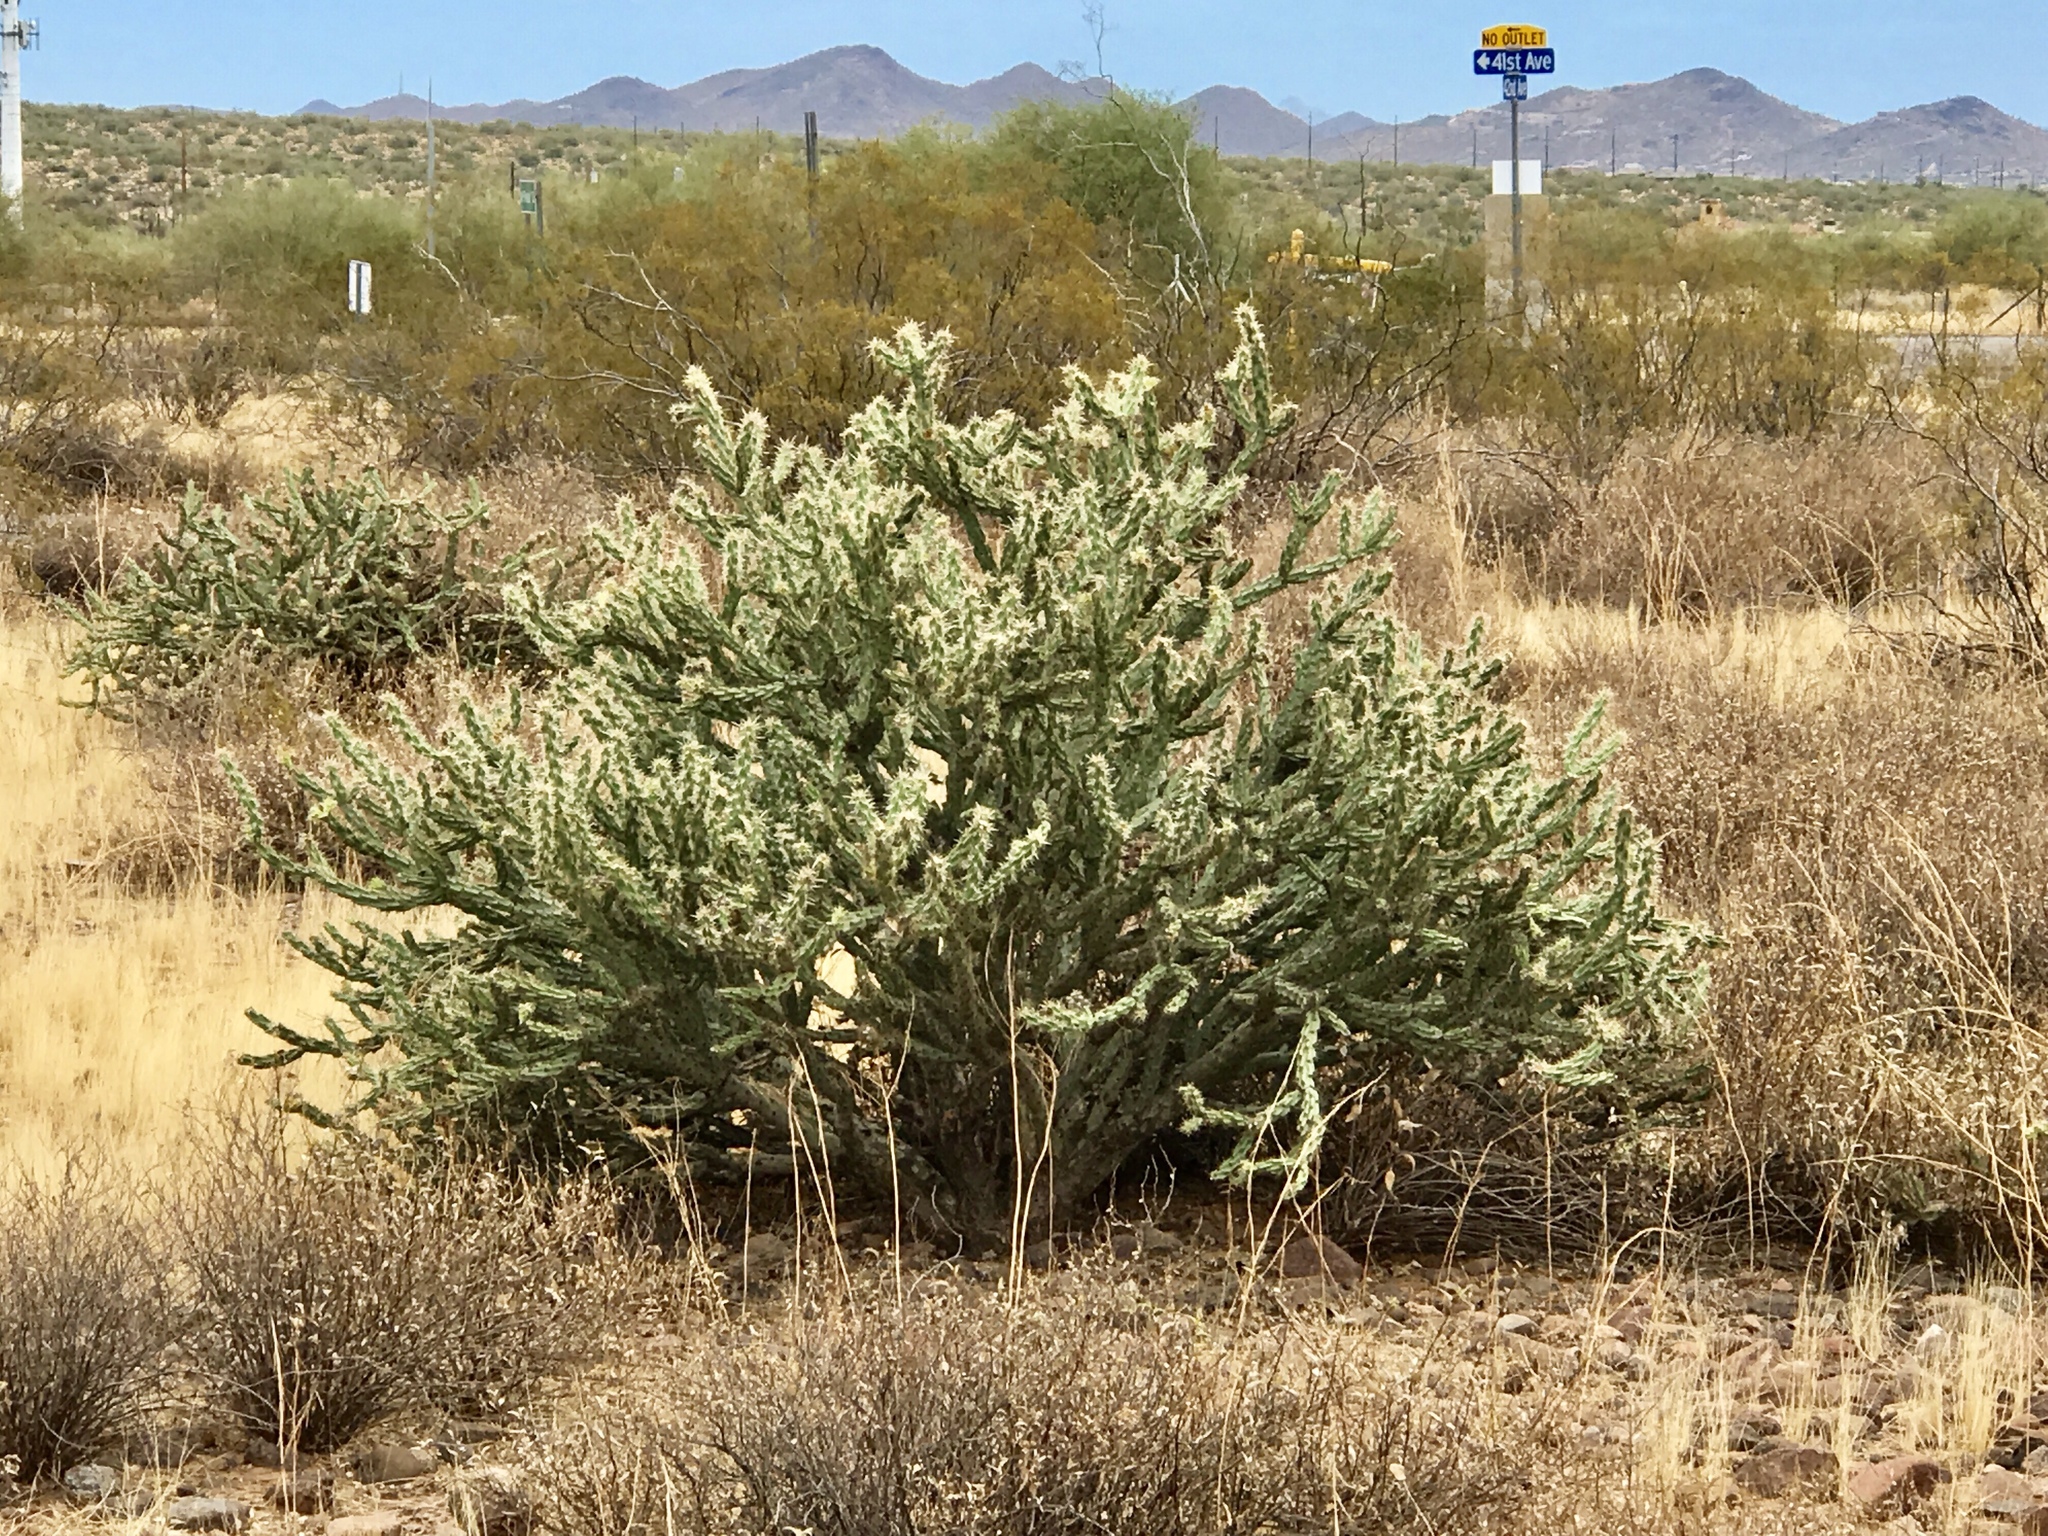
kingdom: Plantae
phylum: Tracheophyta
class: Magnoliopsida
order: Caryophyllales
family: Cactaceae
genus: Cylindropuntia
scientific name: Cylindropuntia acanthocarpa
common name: Buckhorn cholla
